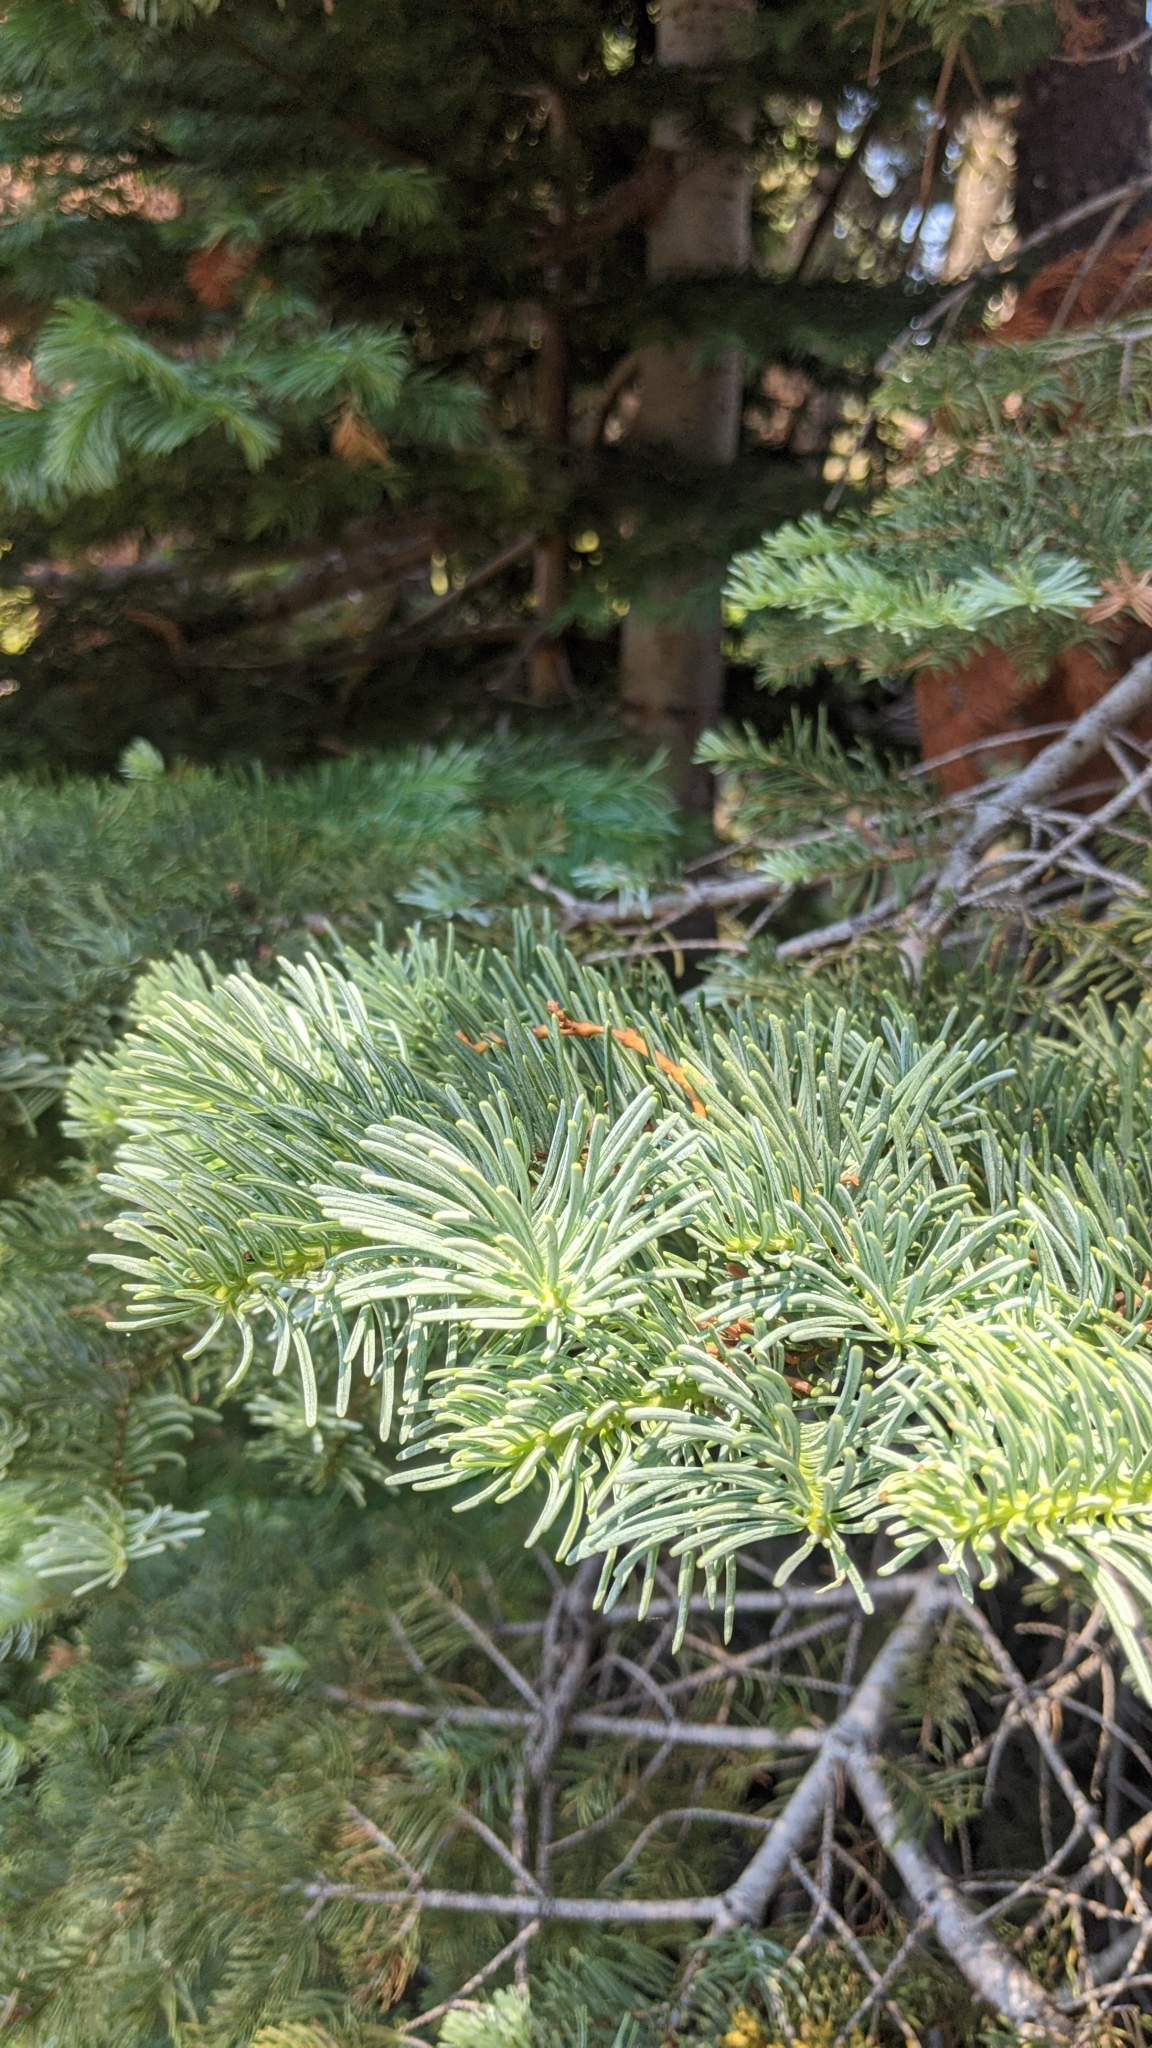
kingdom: Plantae
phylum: Tracheophyta
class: Pinopsida
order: Pinales
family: Pinaceae
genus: Abies
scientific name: Abies magnifica bis
